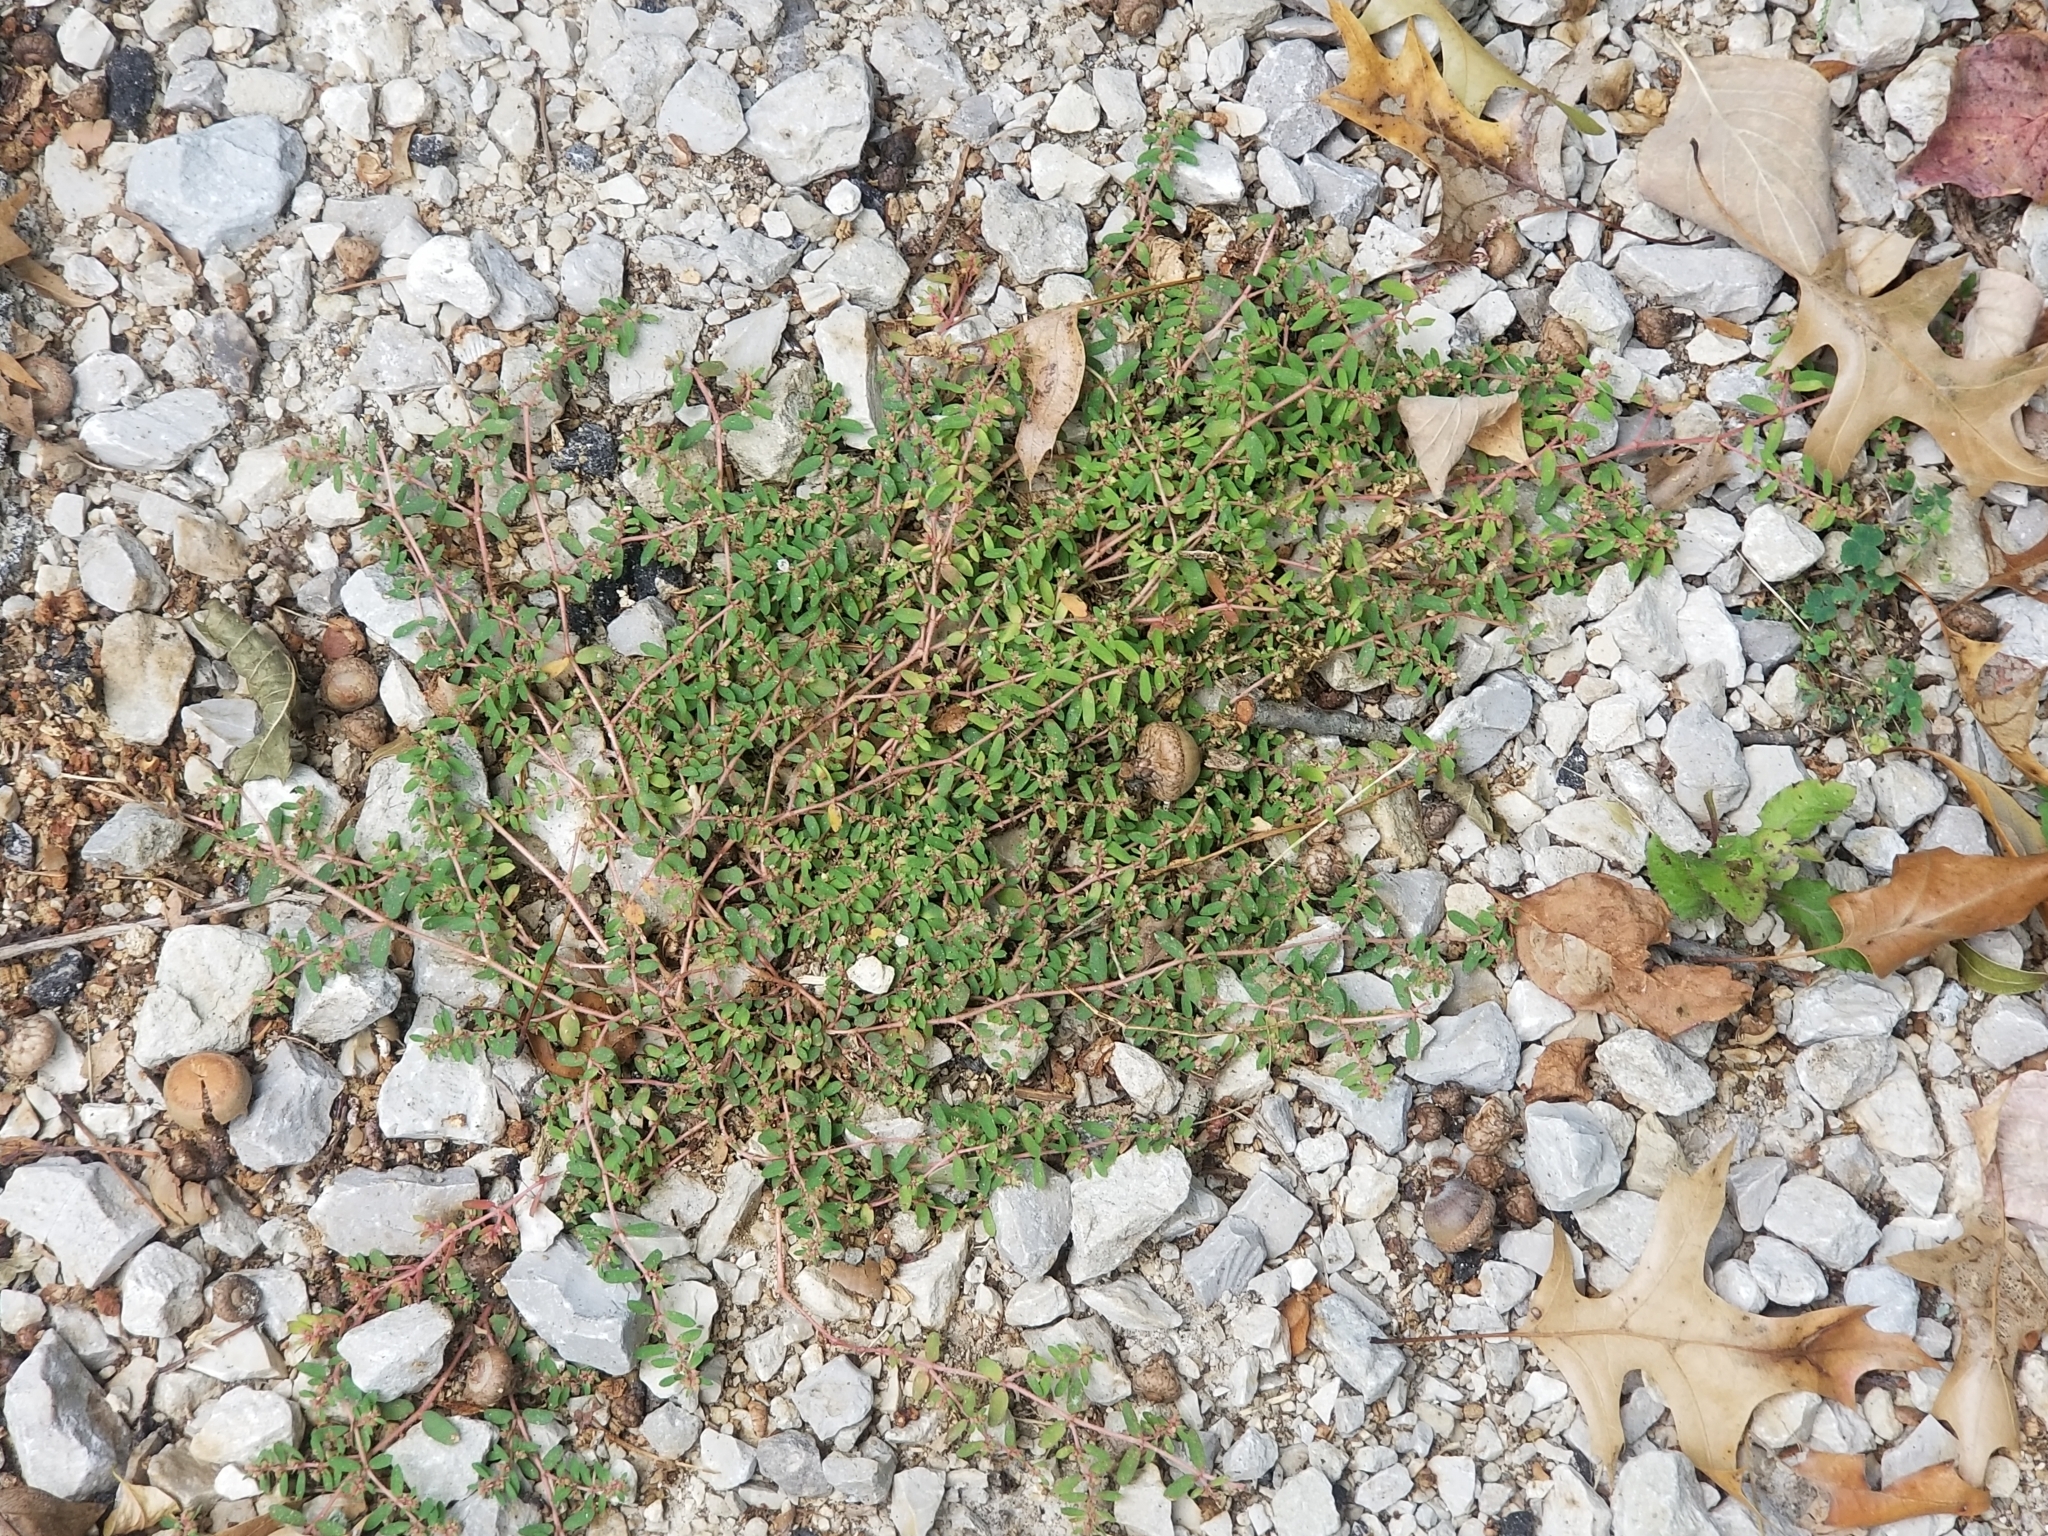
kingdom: Plantae
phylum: Tracheophyta
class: Magnoliopsida
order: Malpighiales
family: Euphorbiaceae
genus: Euphorbia
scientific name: Euphorbia maculata
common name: Spotted spurge
